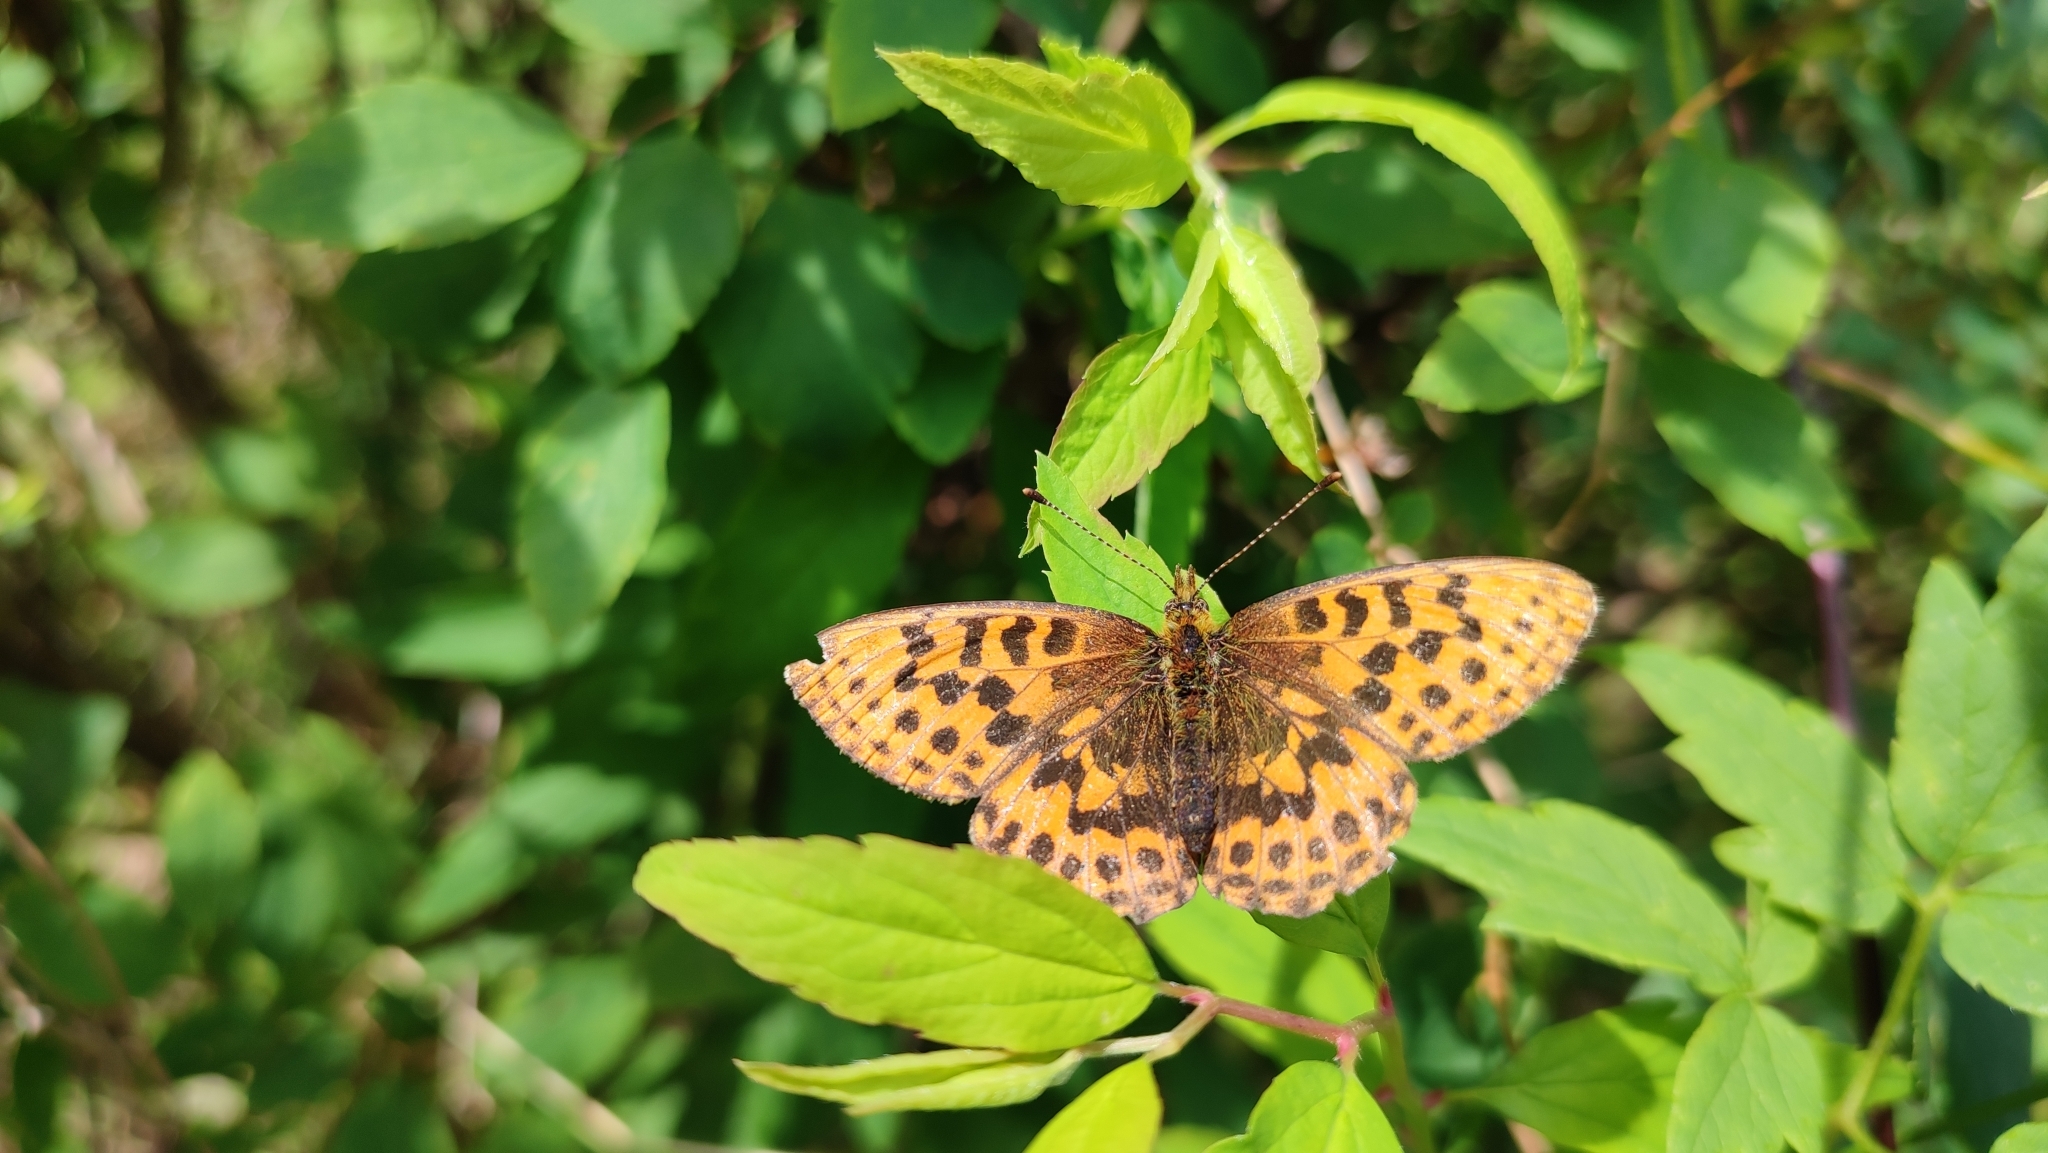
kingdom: Animalia
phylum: Arthropoda
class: Insecta
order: Lepidoptera
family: Nymphalidae
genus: Boloria
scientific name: Boloria thore
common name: Thor's fritillary
